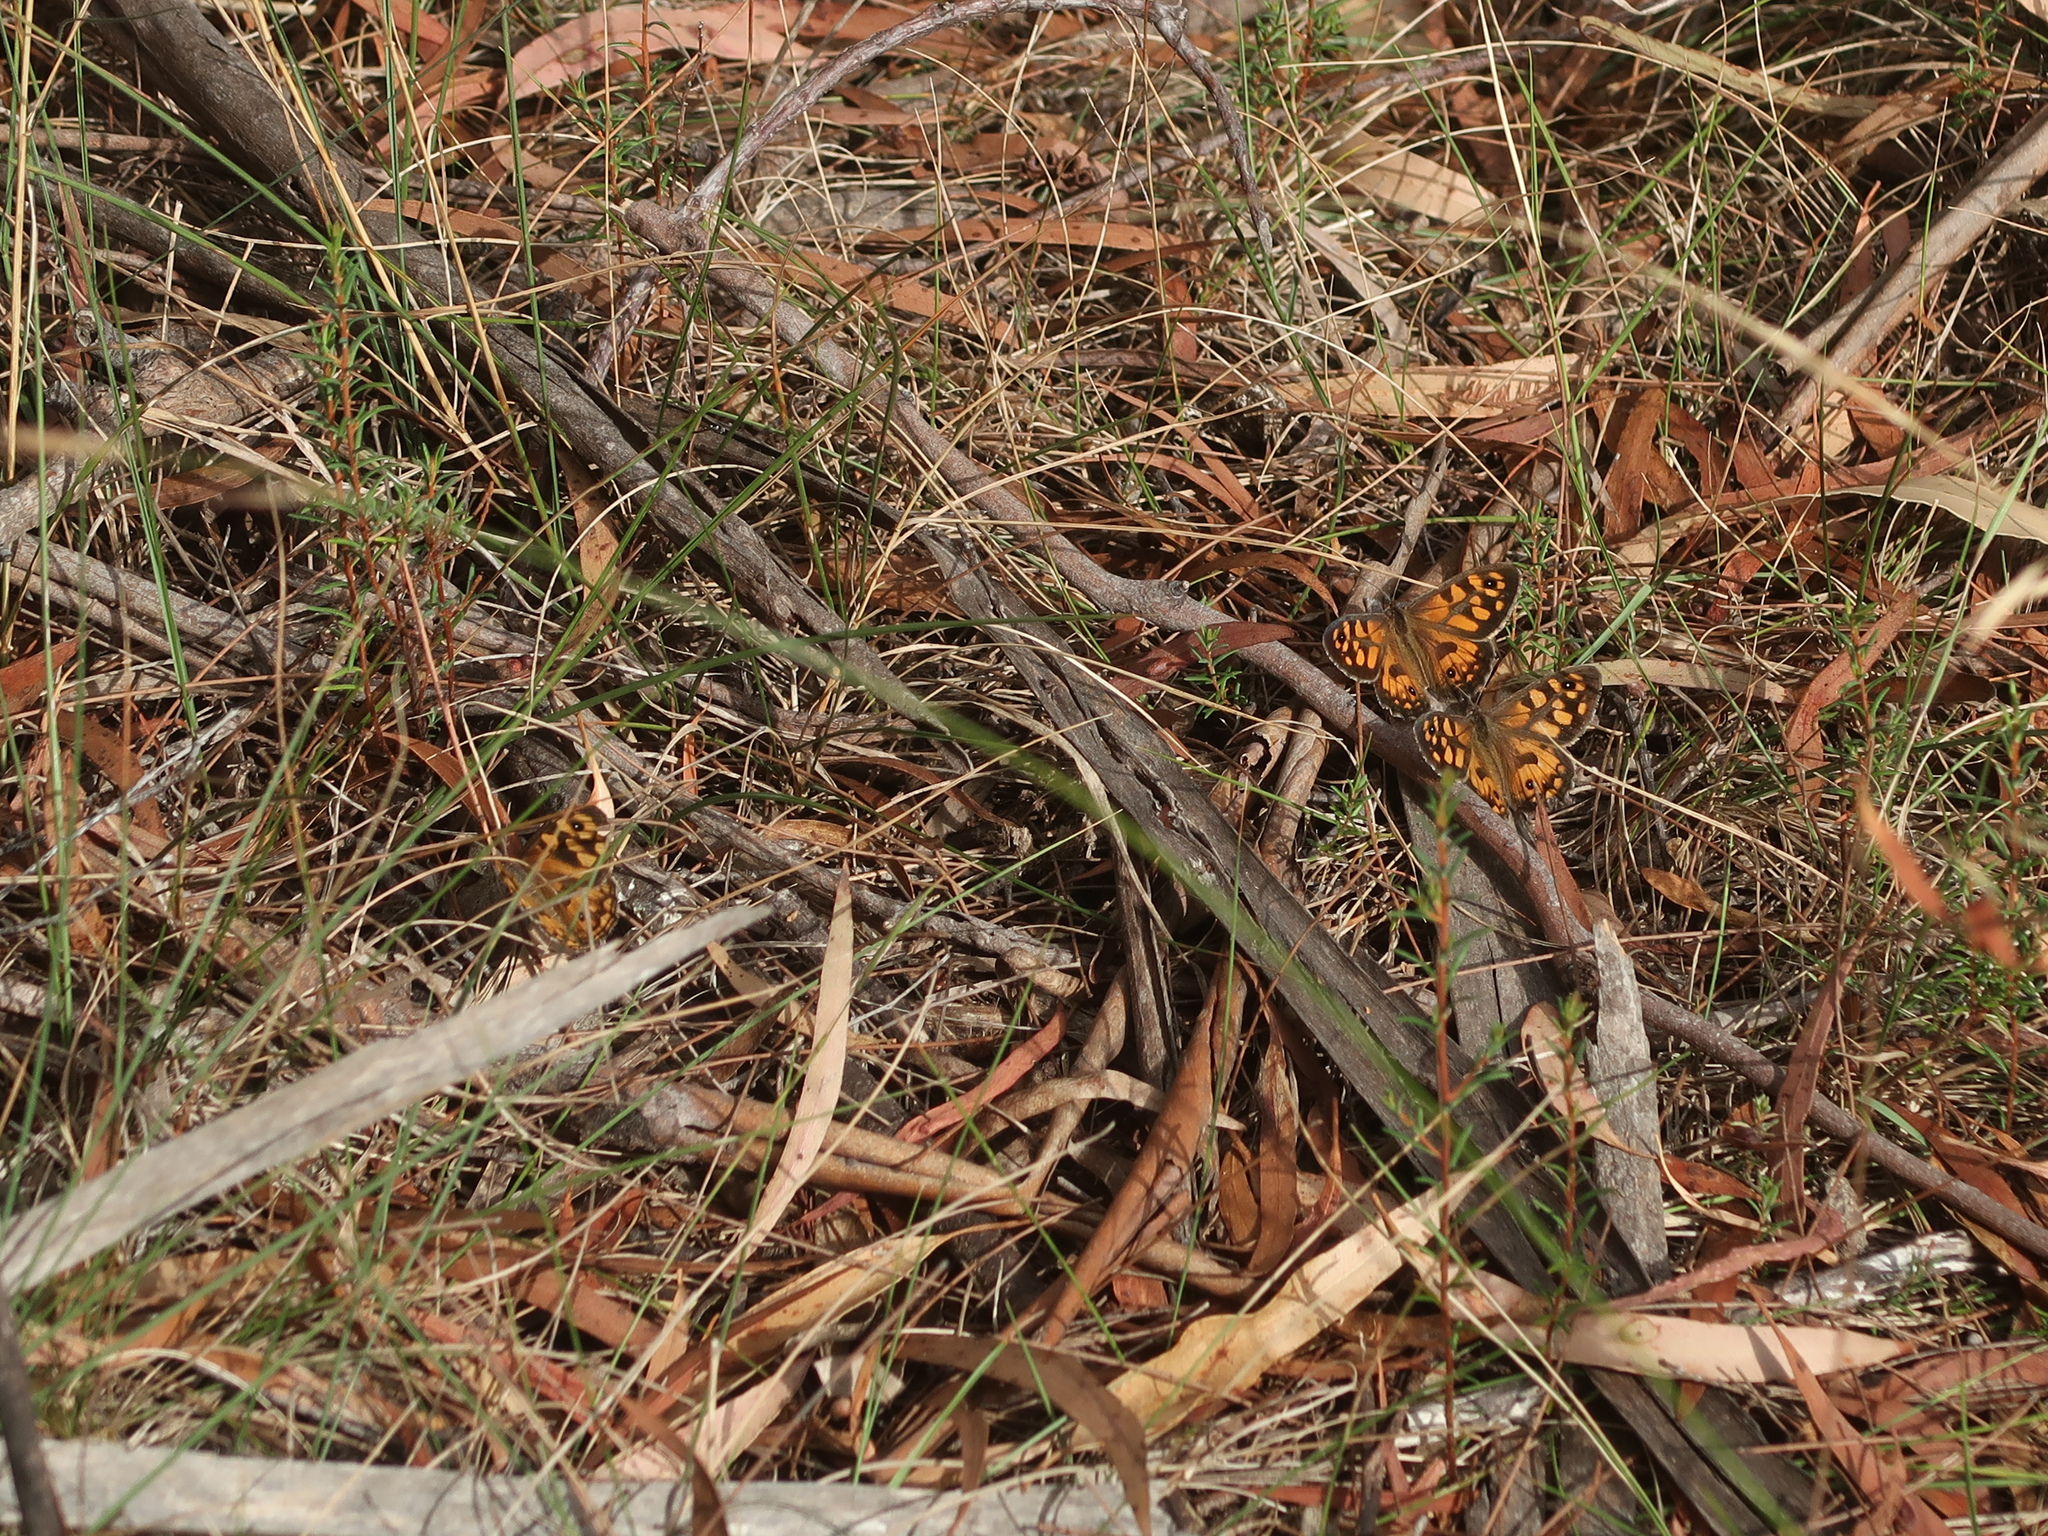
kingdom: Animalia
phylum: Arthropoda
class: Insecta
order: Lepidoptera
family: Nymphalidae
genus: Geitoneura
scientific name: Geitoneura klugii
